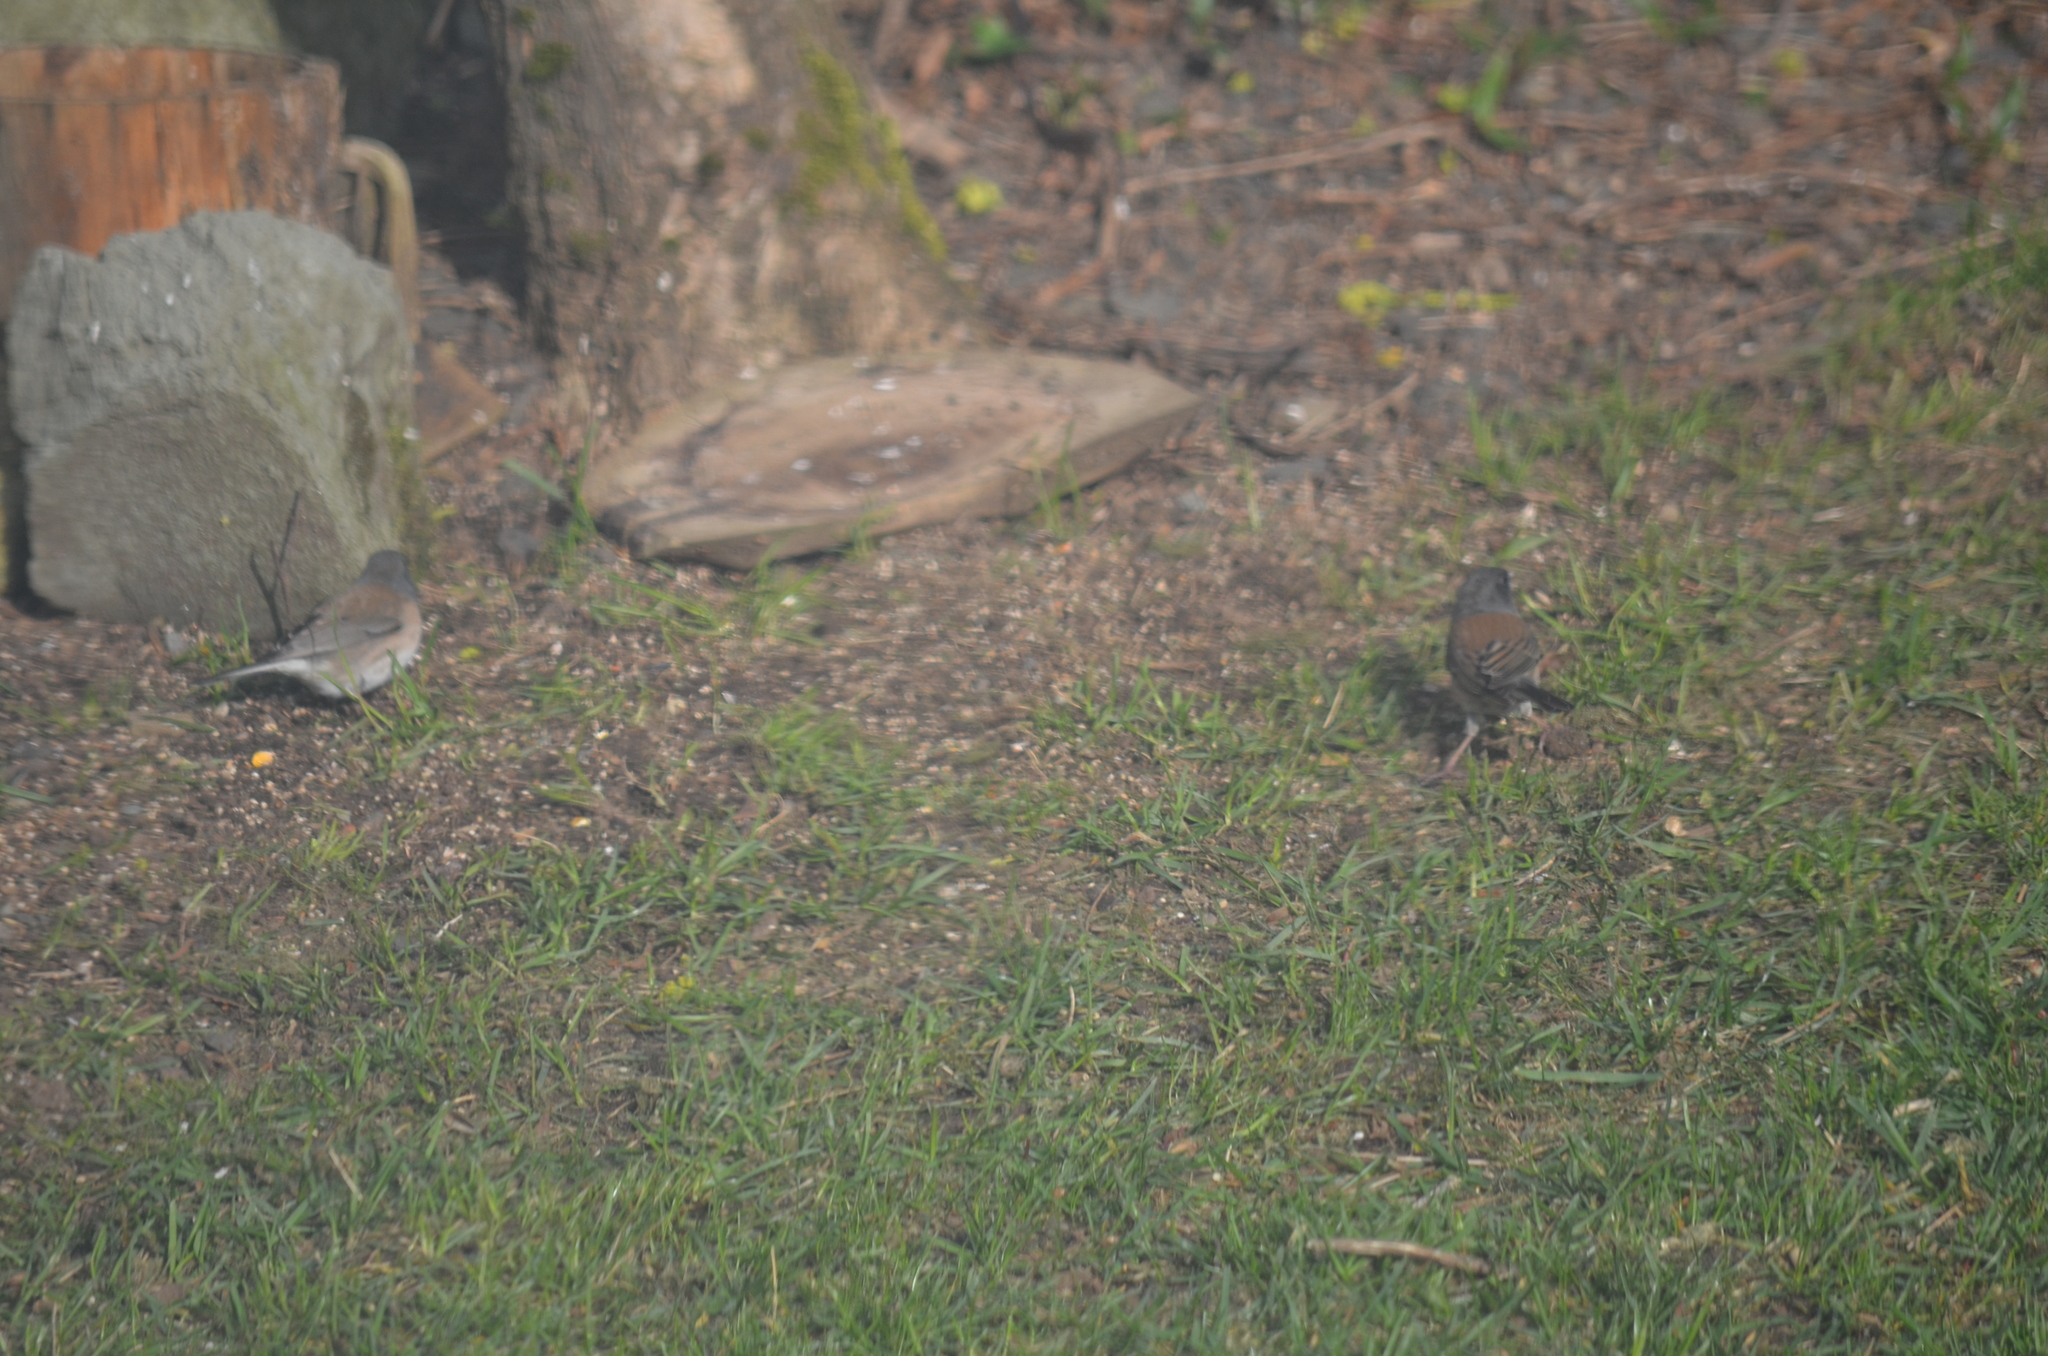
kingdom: Animalia
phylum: Chordata
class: Aves
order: Passeriformes
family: Passerellidae
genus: Junco
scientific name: Junco hyemalis
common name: Dark-eyed junco
